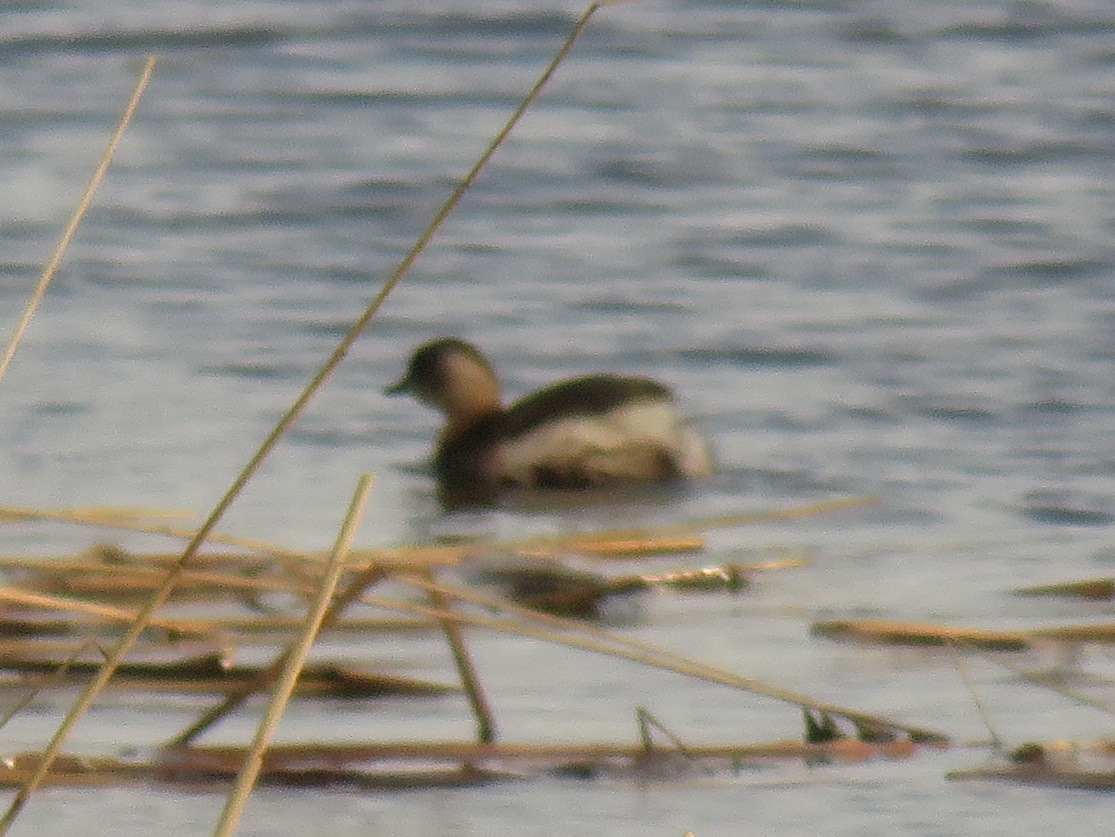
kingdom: Animalia
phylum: Chordata
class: Aves
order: Podicipediformes
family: Podicipedidae
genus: Tachybaptus
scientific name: Tachybaptus ruficollis
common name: Little grebe
